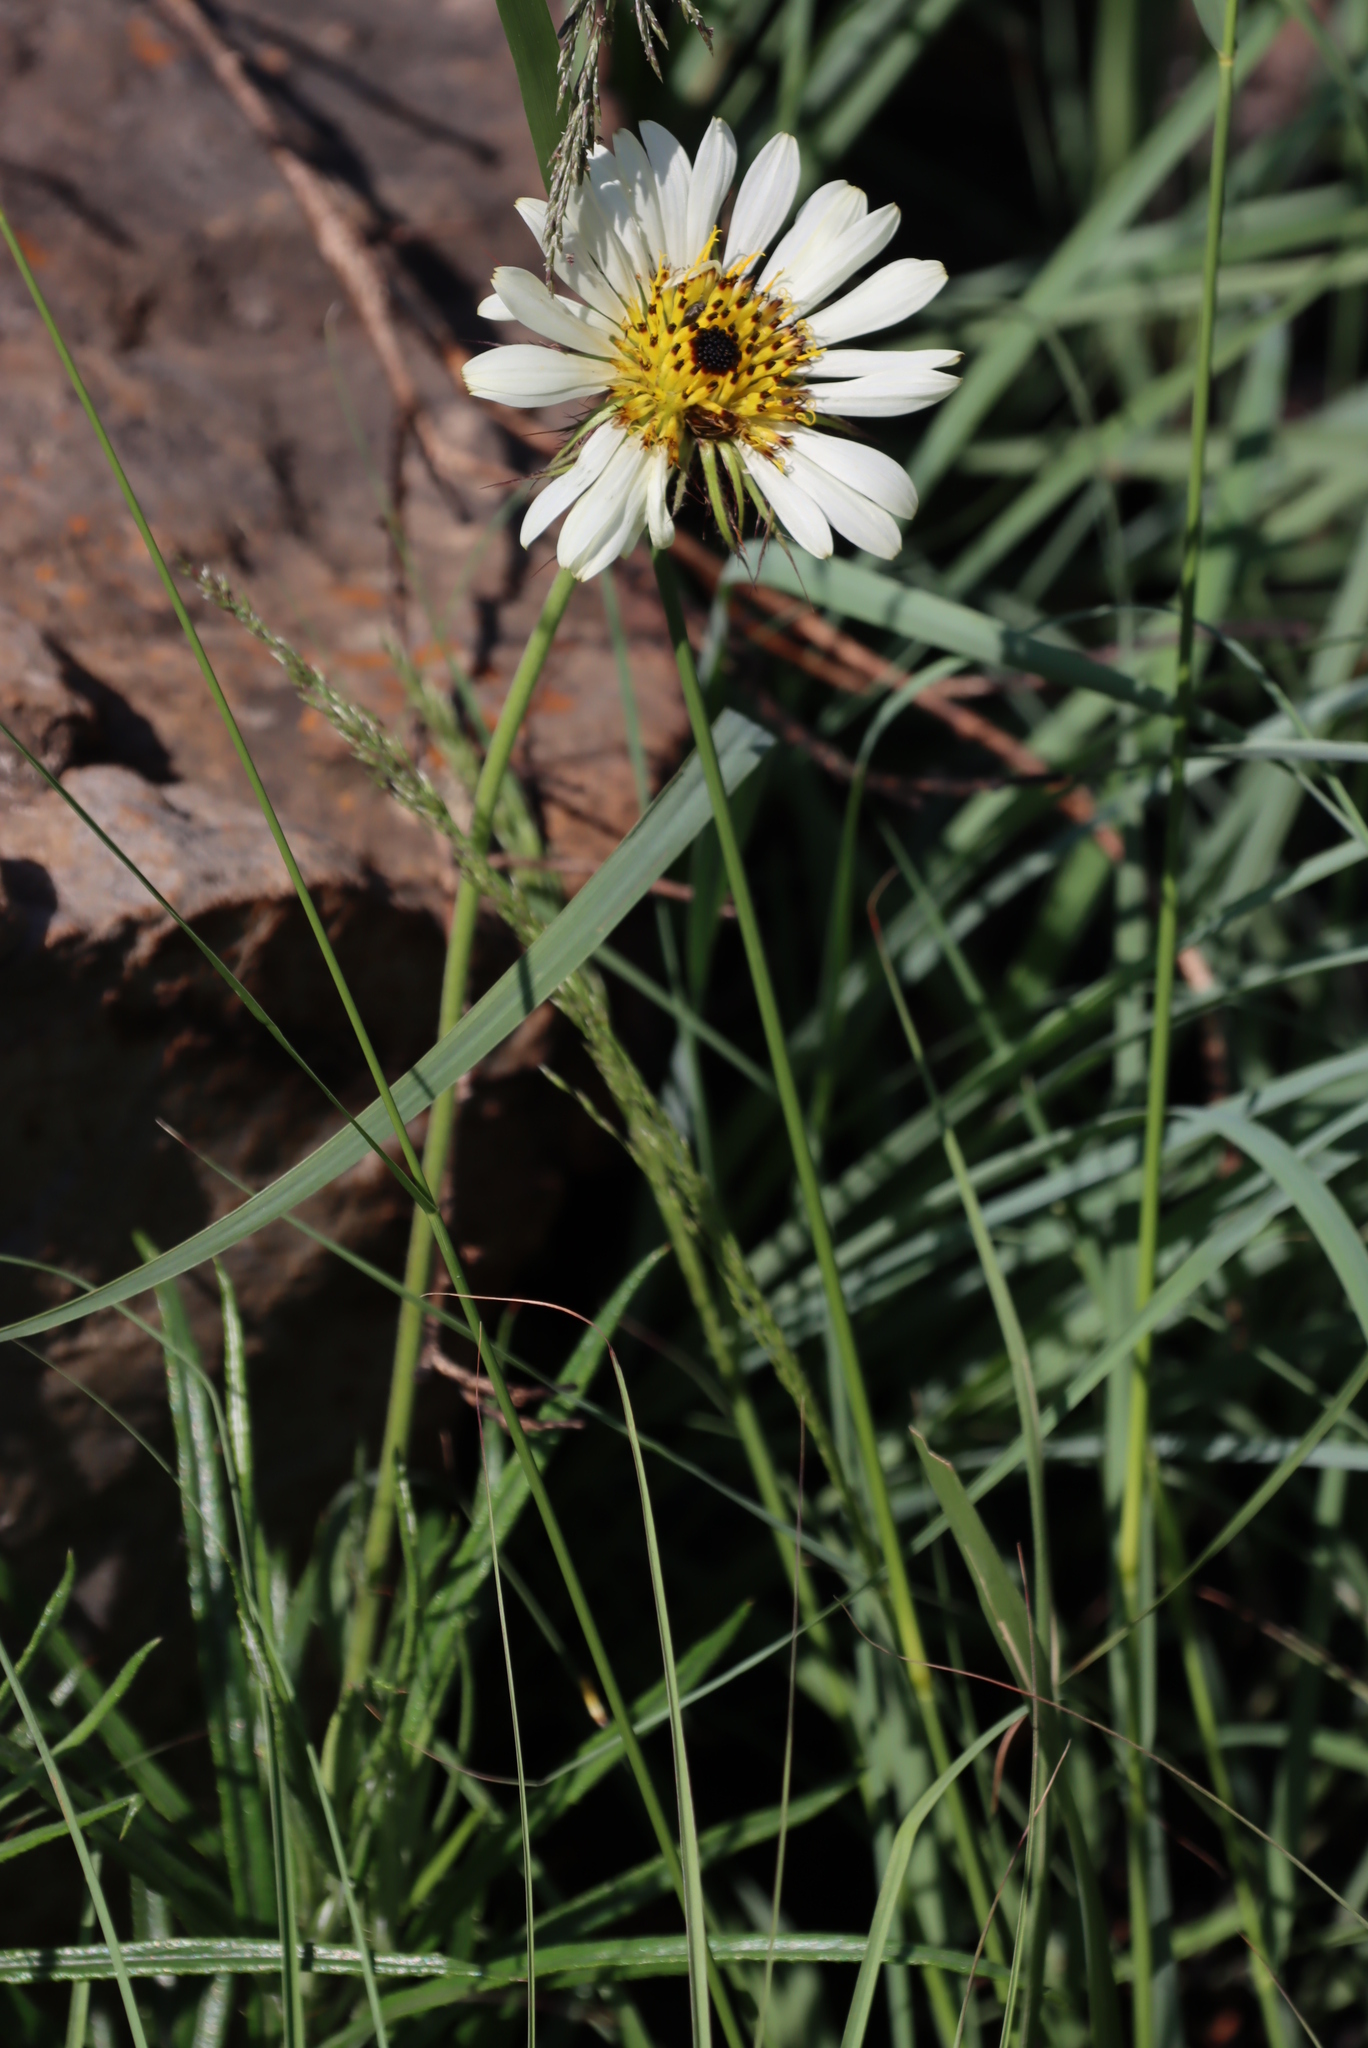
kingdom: Plantae
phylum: Tracheophyta
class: Magnoliopsida
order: Asterales
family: Asteraceae
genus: Callilepis
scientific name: Callilepis laureola
